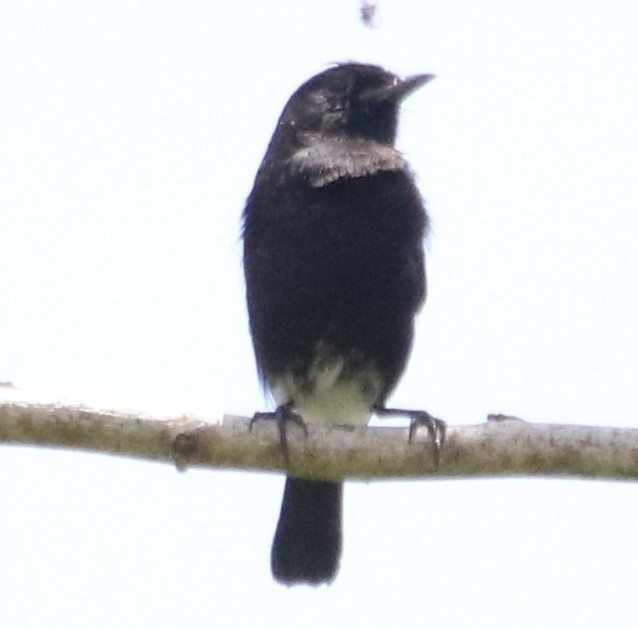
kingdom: Animalia
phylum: Chordata
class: Aves
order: Passeriformes
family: Muscicapidae
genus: Saxicola
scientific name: Saxicola caprata
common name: Pied bush chat
